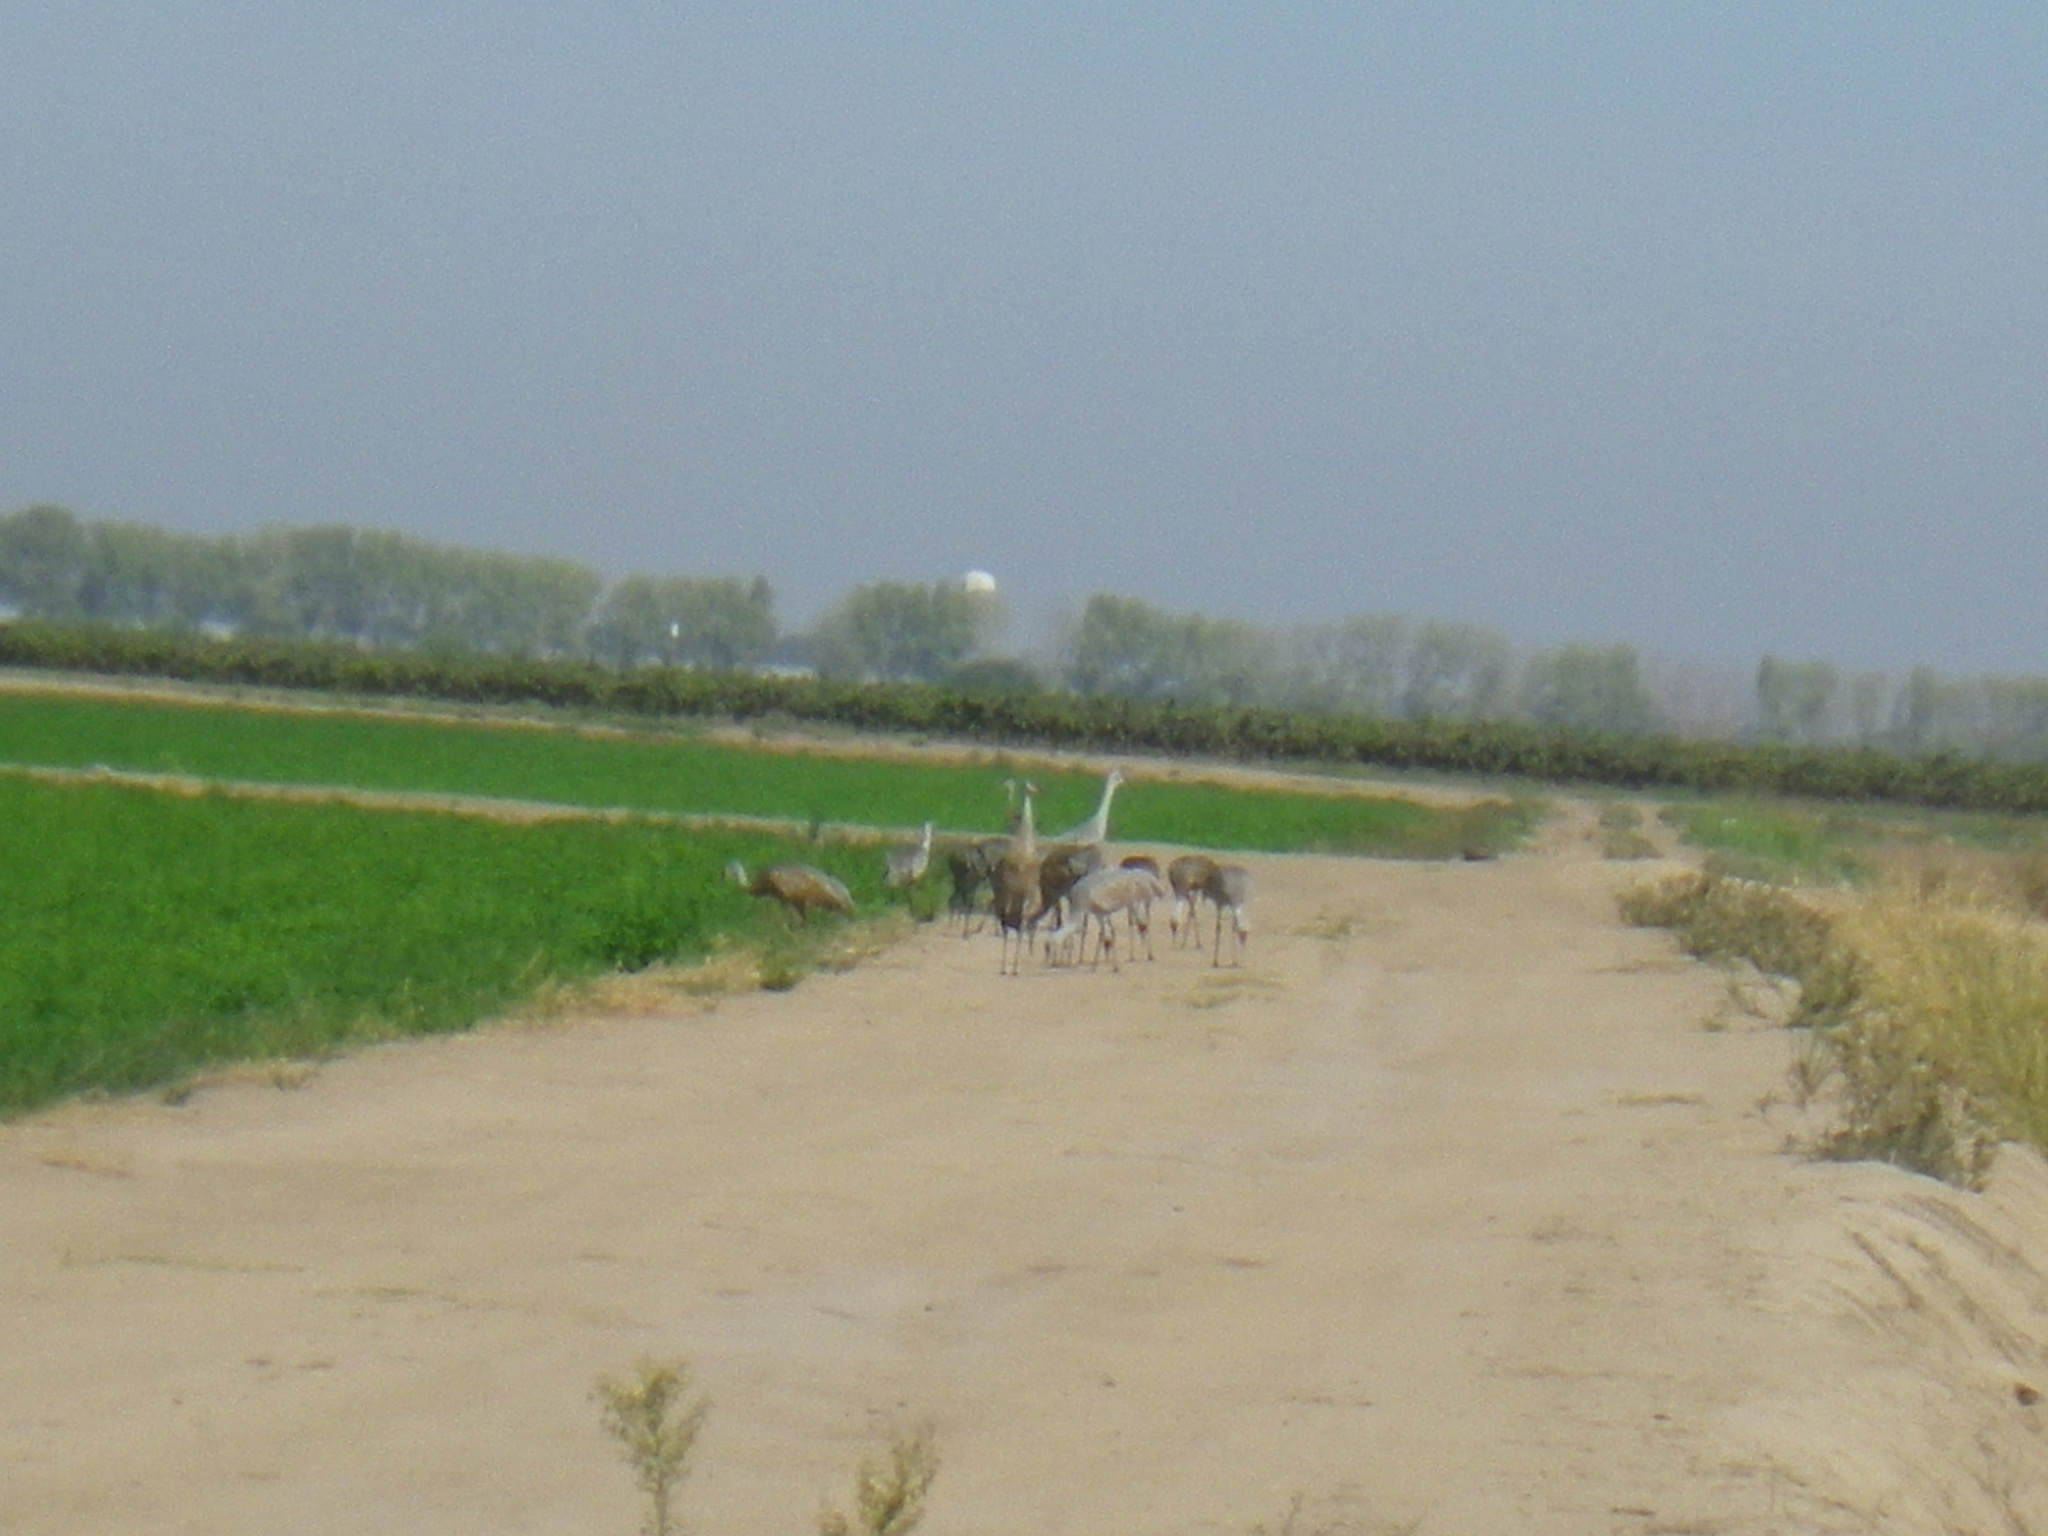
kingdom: Animalia
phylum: Chordata
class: Aves
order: Gruiformes
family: Gruidae
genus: Grus
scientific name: Grus canadensis
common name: Sandhill crane
